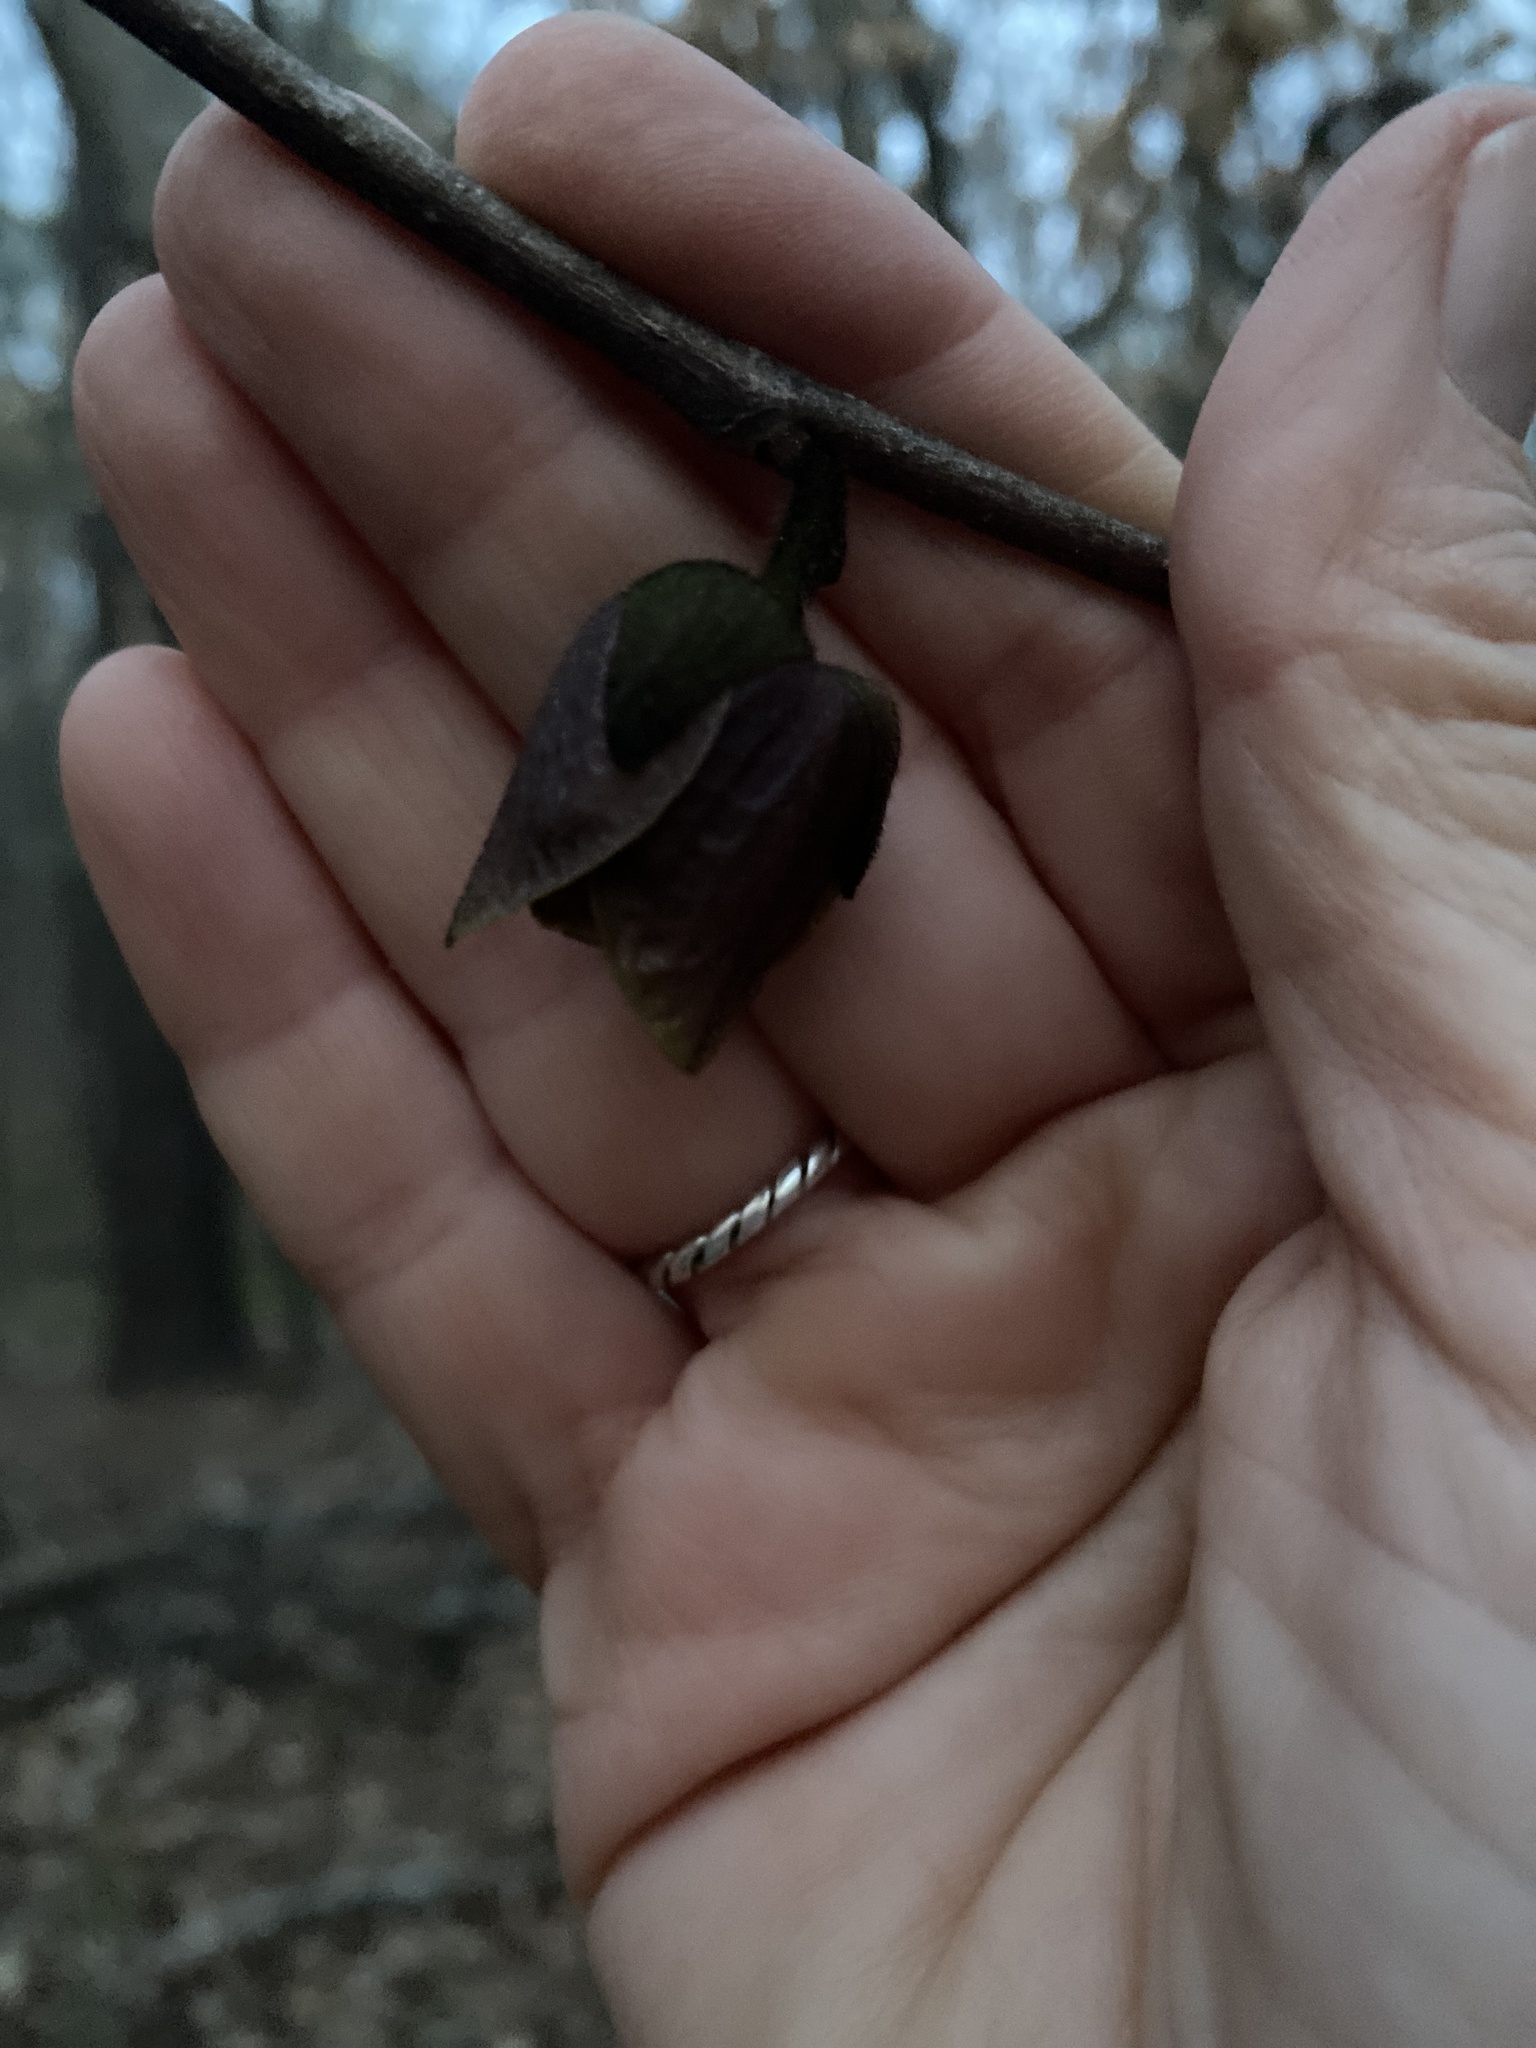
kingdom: Plantae
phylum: Tracheophyta
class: Magnoliopsida
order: Magnoliales
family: Annonaceae
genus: Asimina
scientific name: Asimina triloba
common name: Dog-banana
